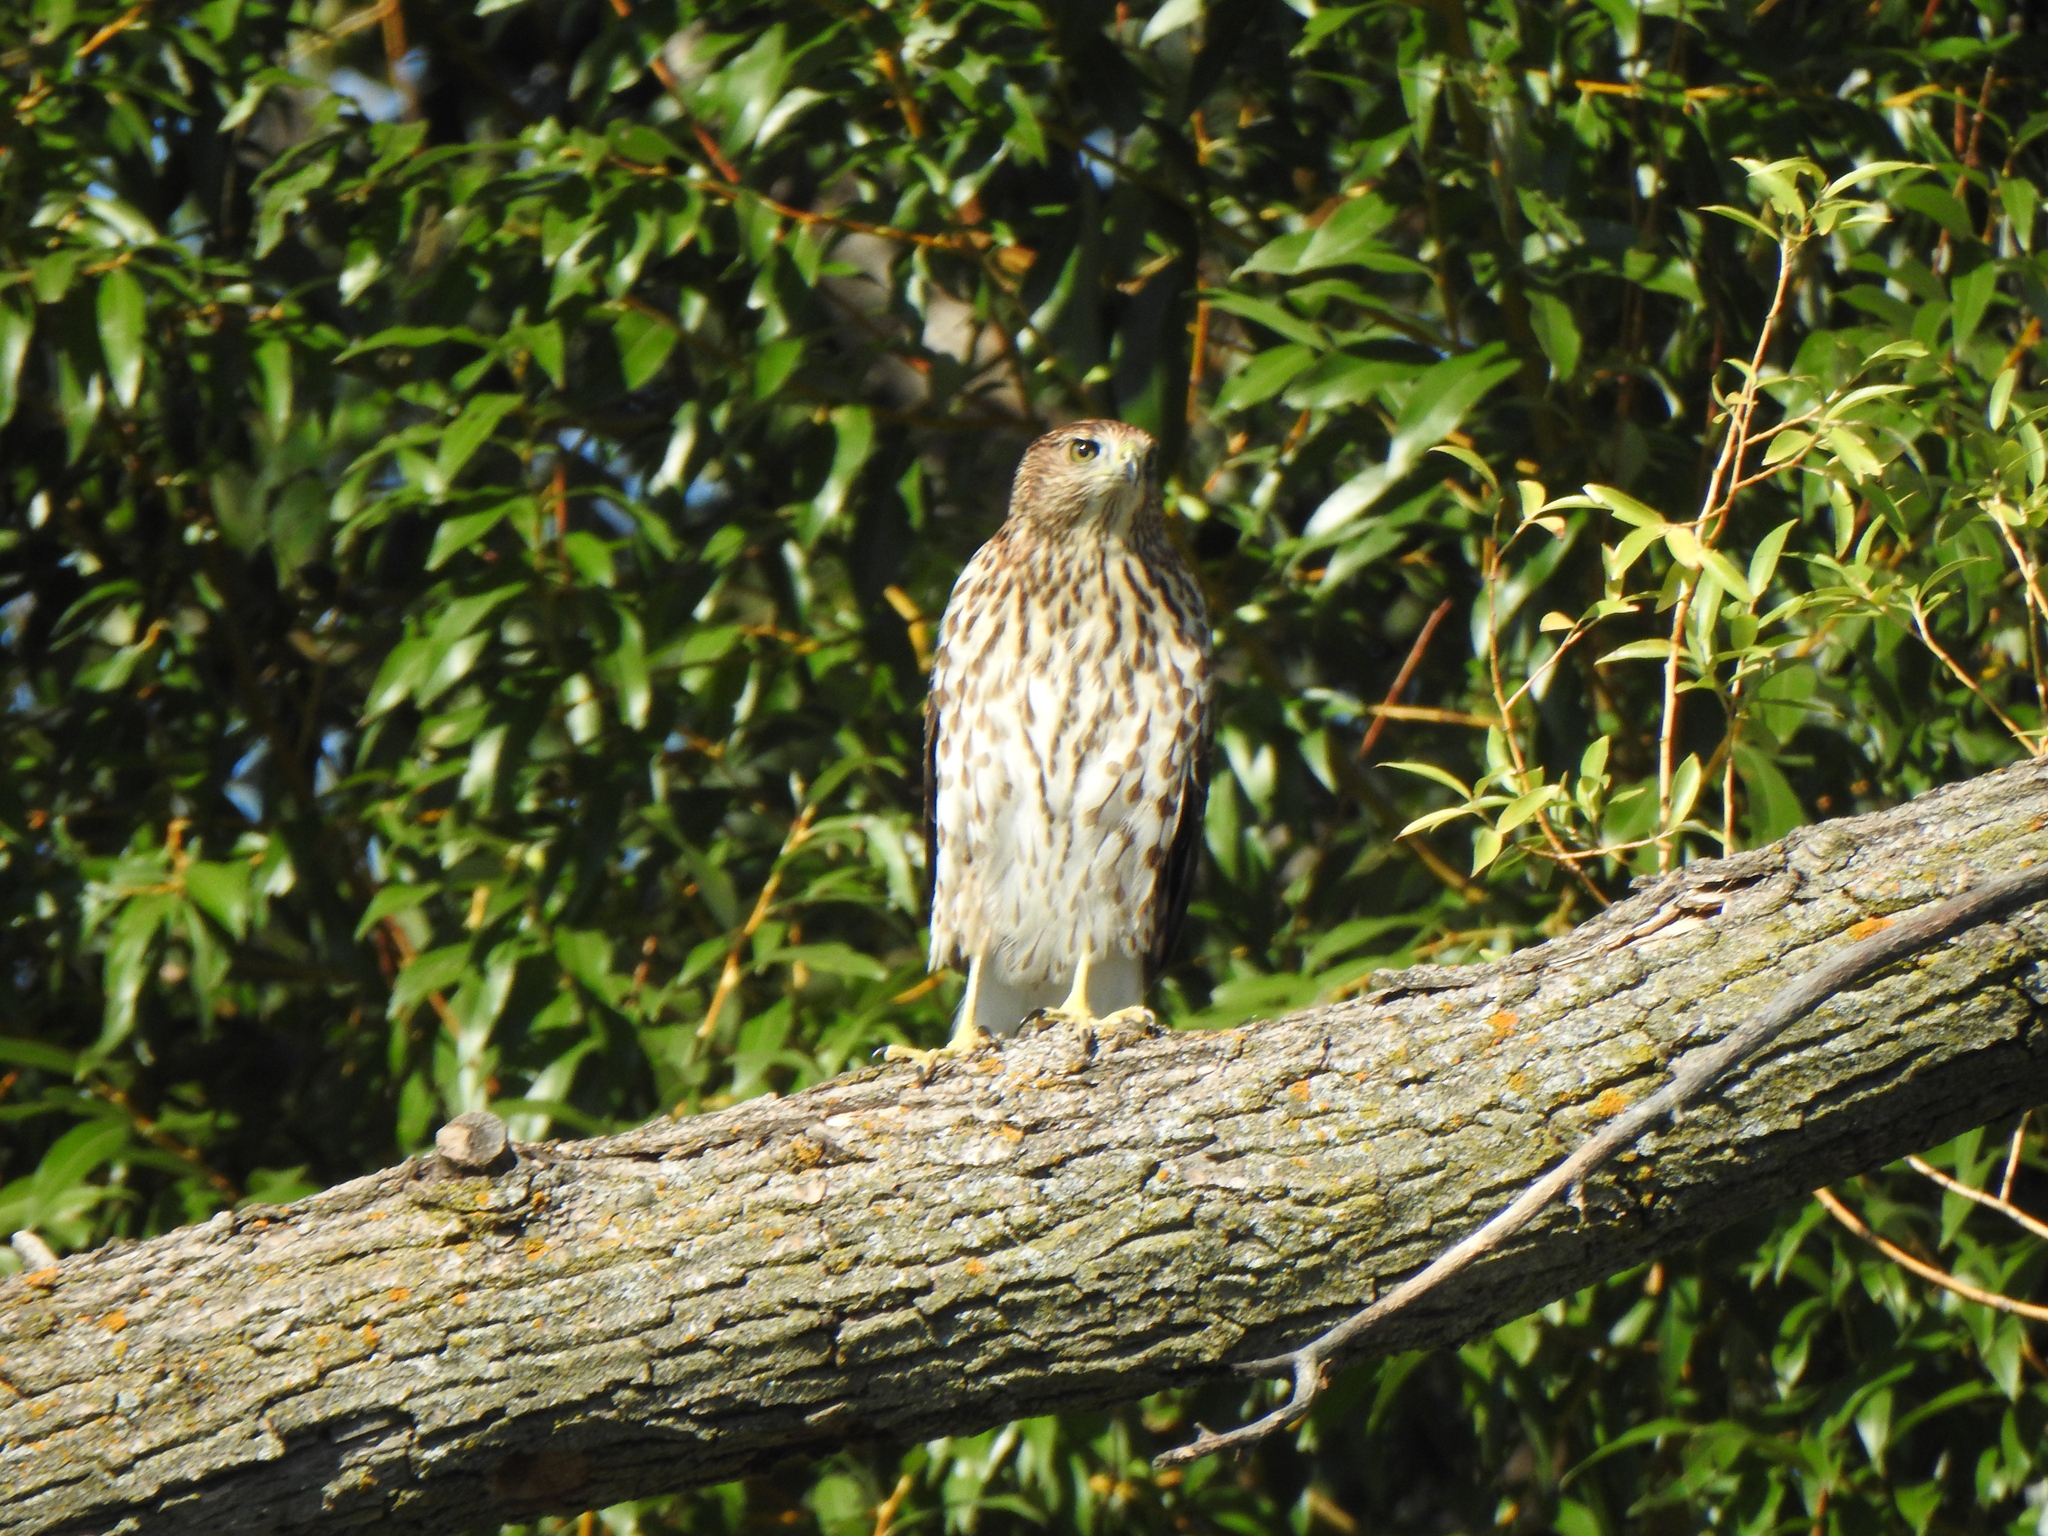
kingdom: Animalia
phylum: Chordata
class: Aves
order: Accipitriformes
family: Accipitridae
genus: Accipiter
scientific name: Accipiter cooperii
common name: Cooper's hawk
